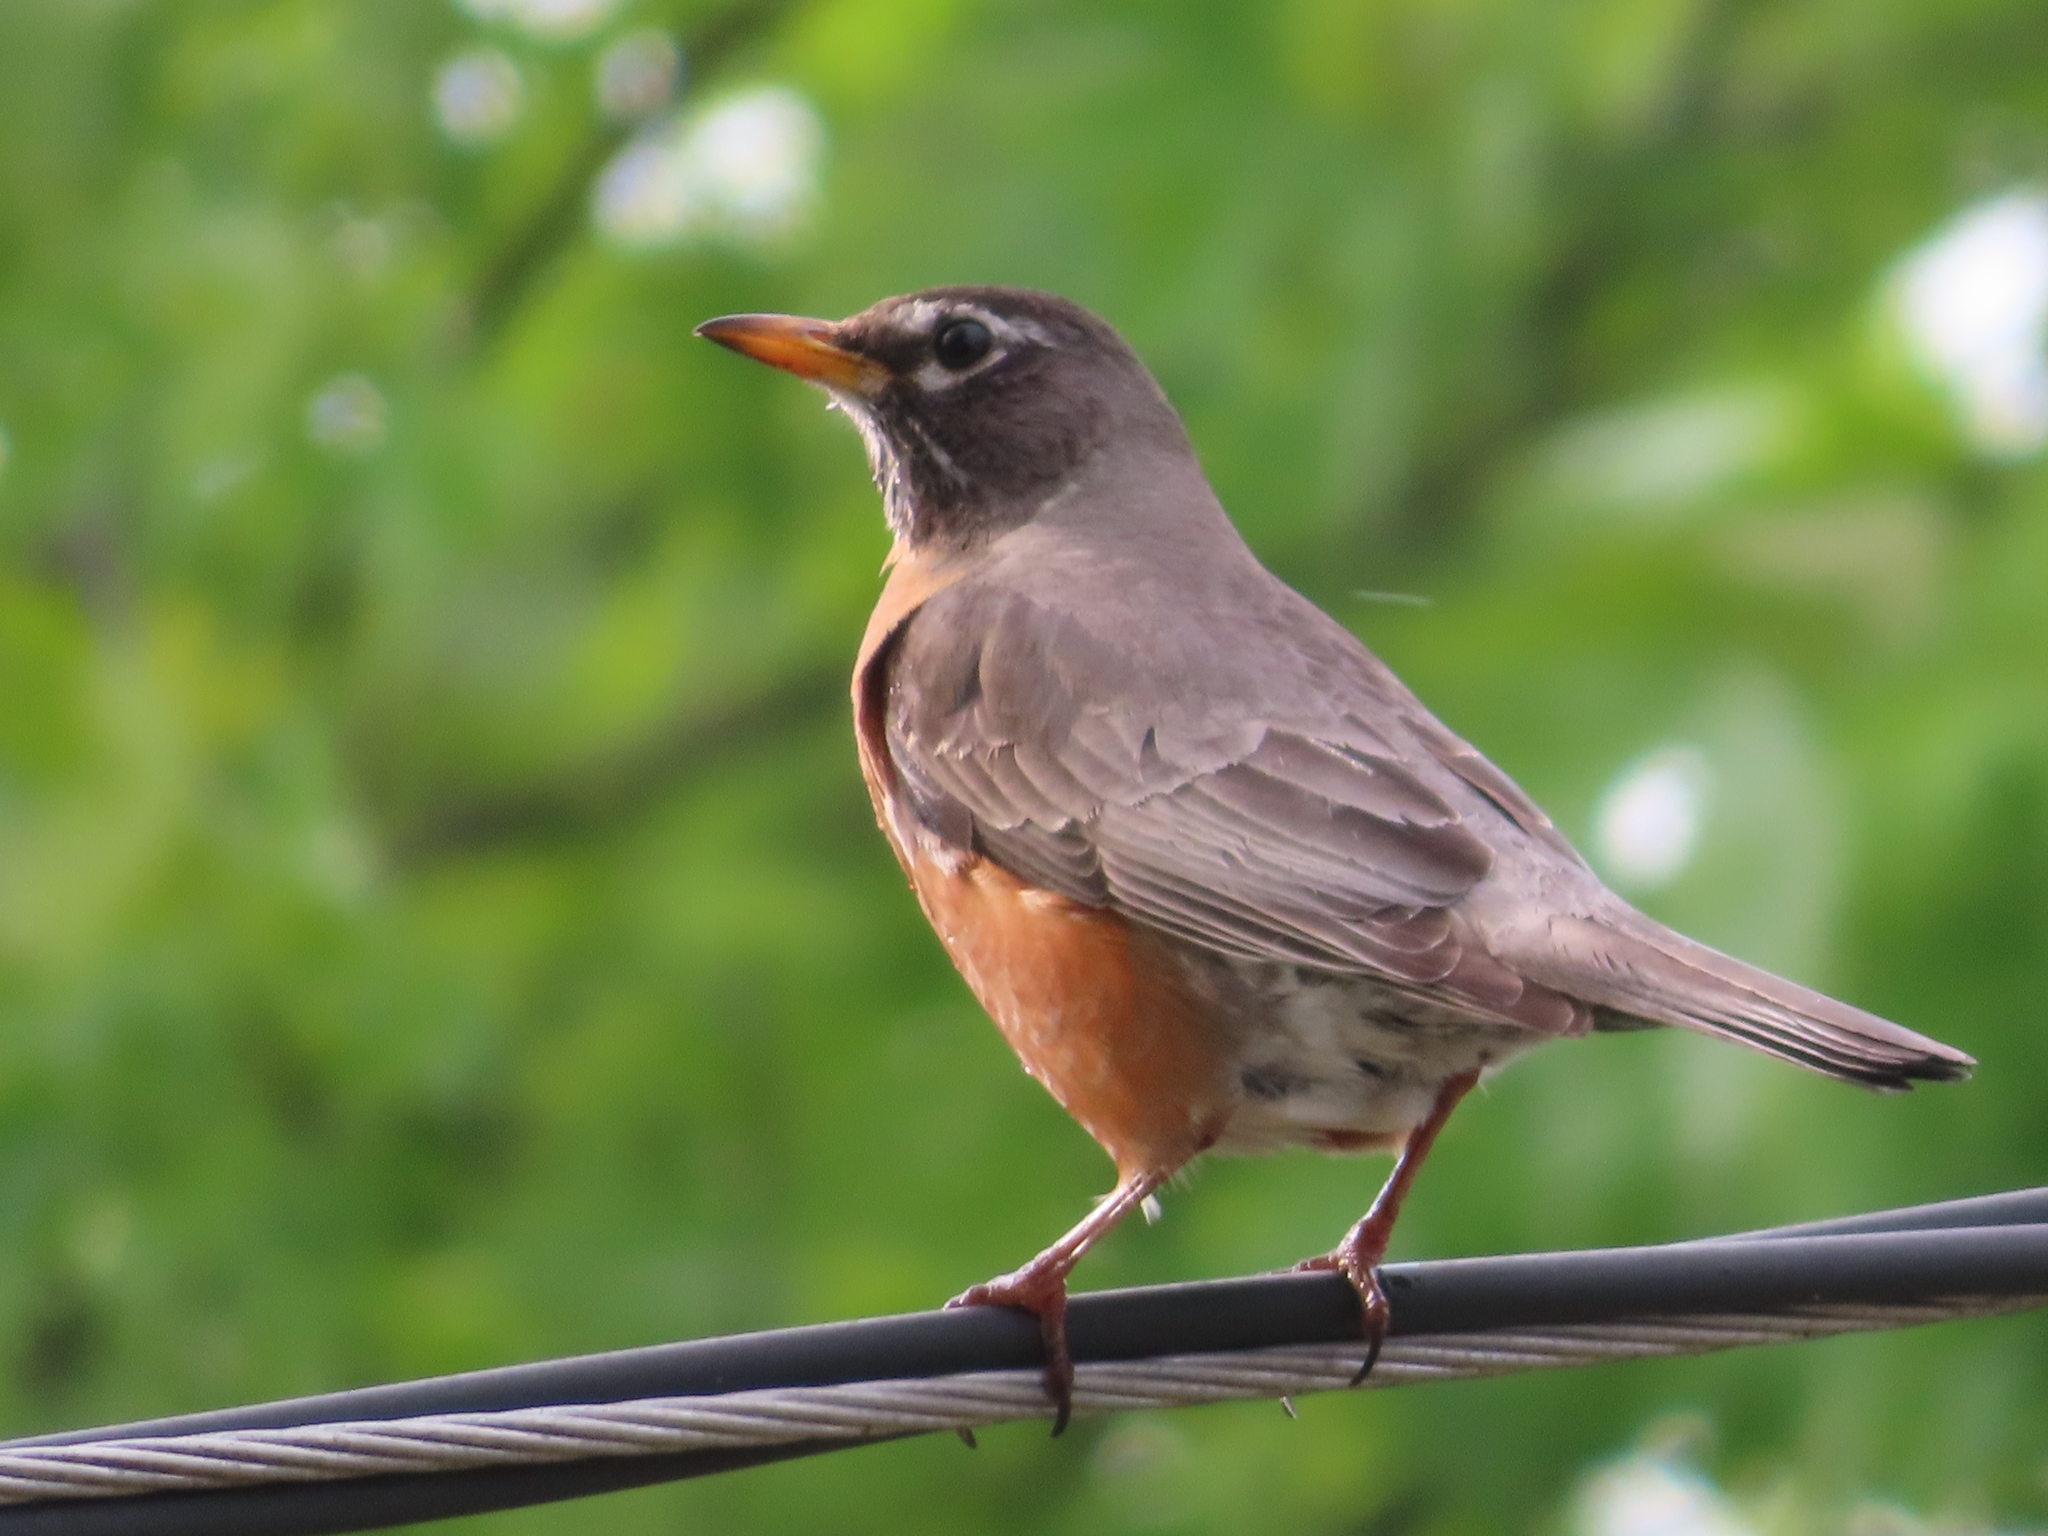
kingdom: Animalia
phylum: Chordata
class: Aves
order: Passeriformes
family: Turdidae
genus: Turdus
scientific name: Turdus migratorius
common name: American robin
